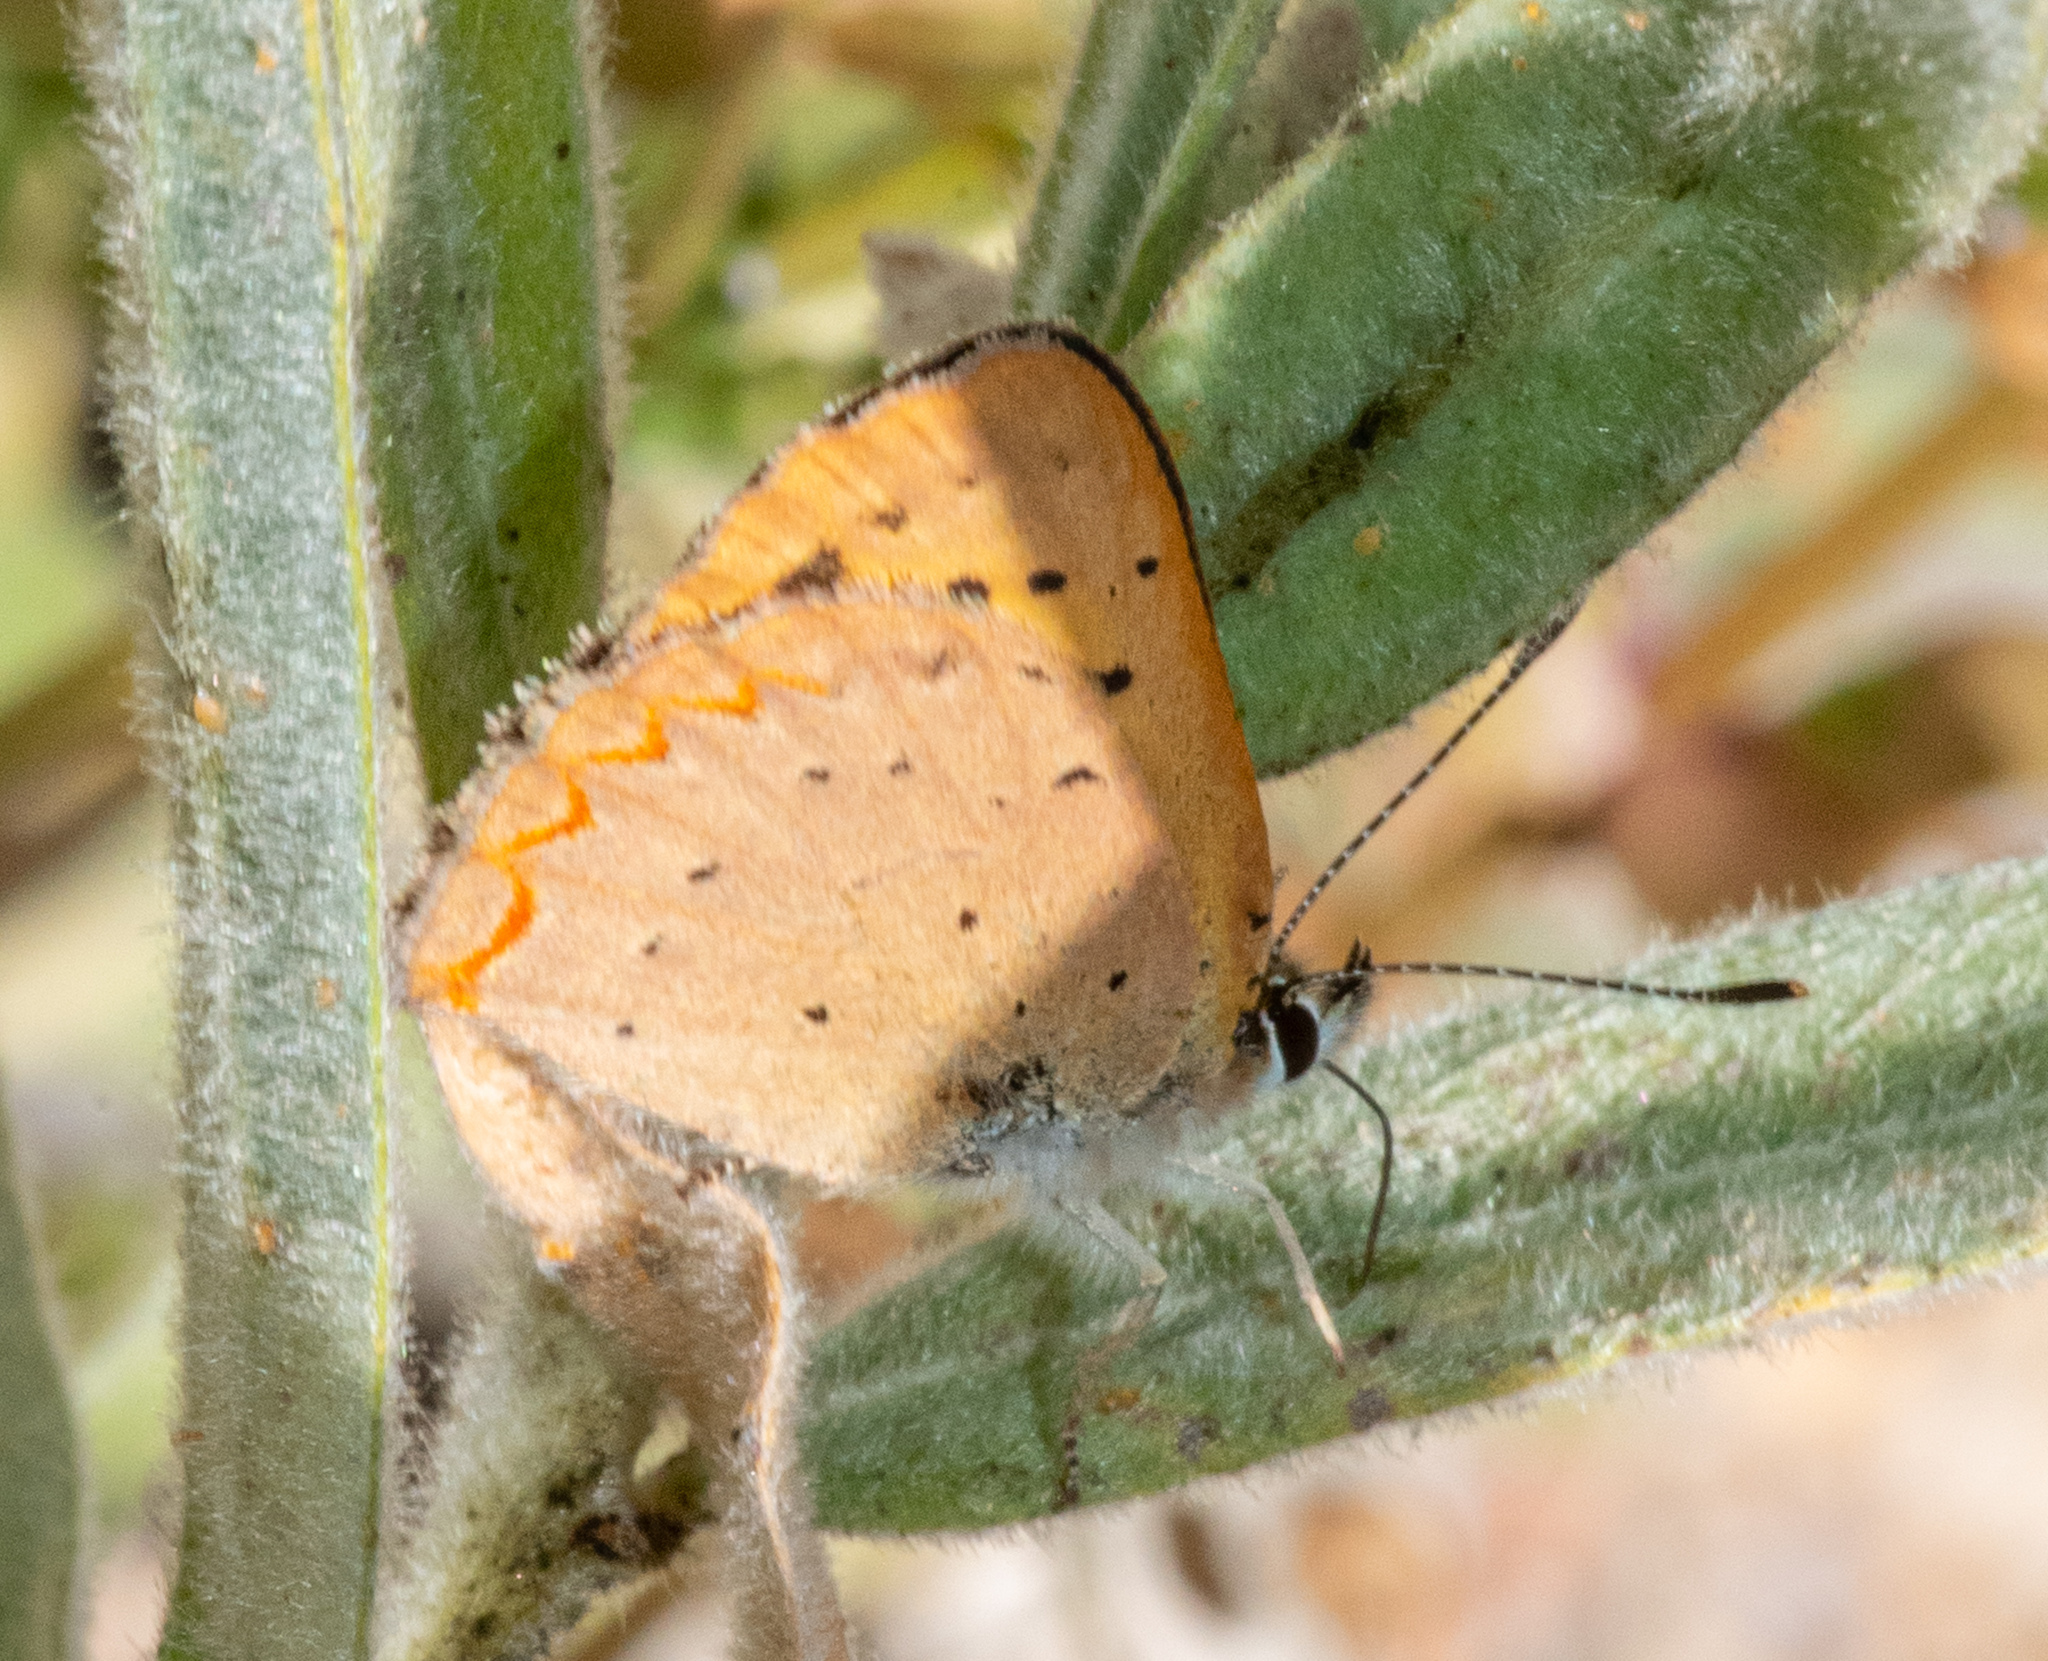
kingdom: Animalia
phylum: Arthropoda
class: Insecta
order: Lepidoptera
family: Lycaenidae
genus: Tharsalea
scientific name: Tharsalea helloides
